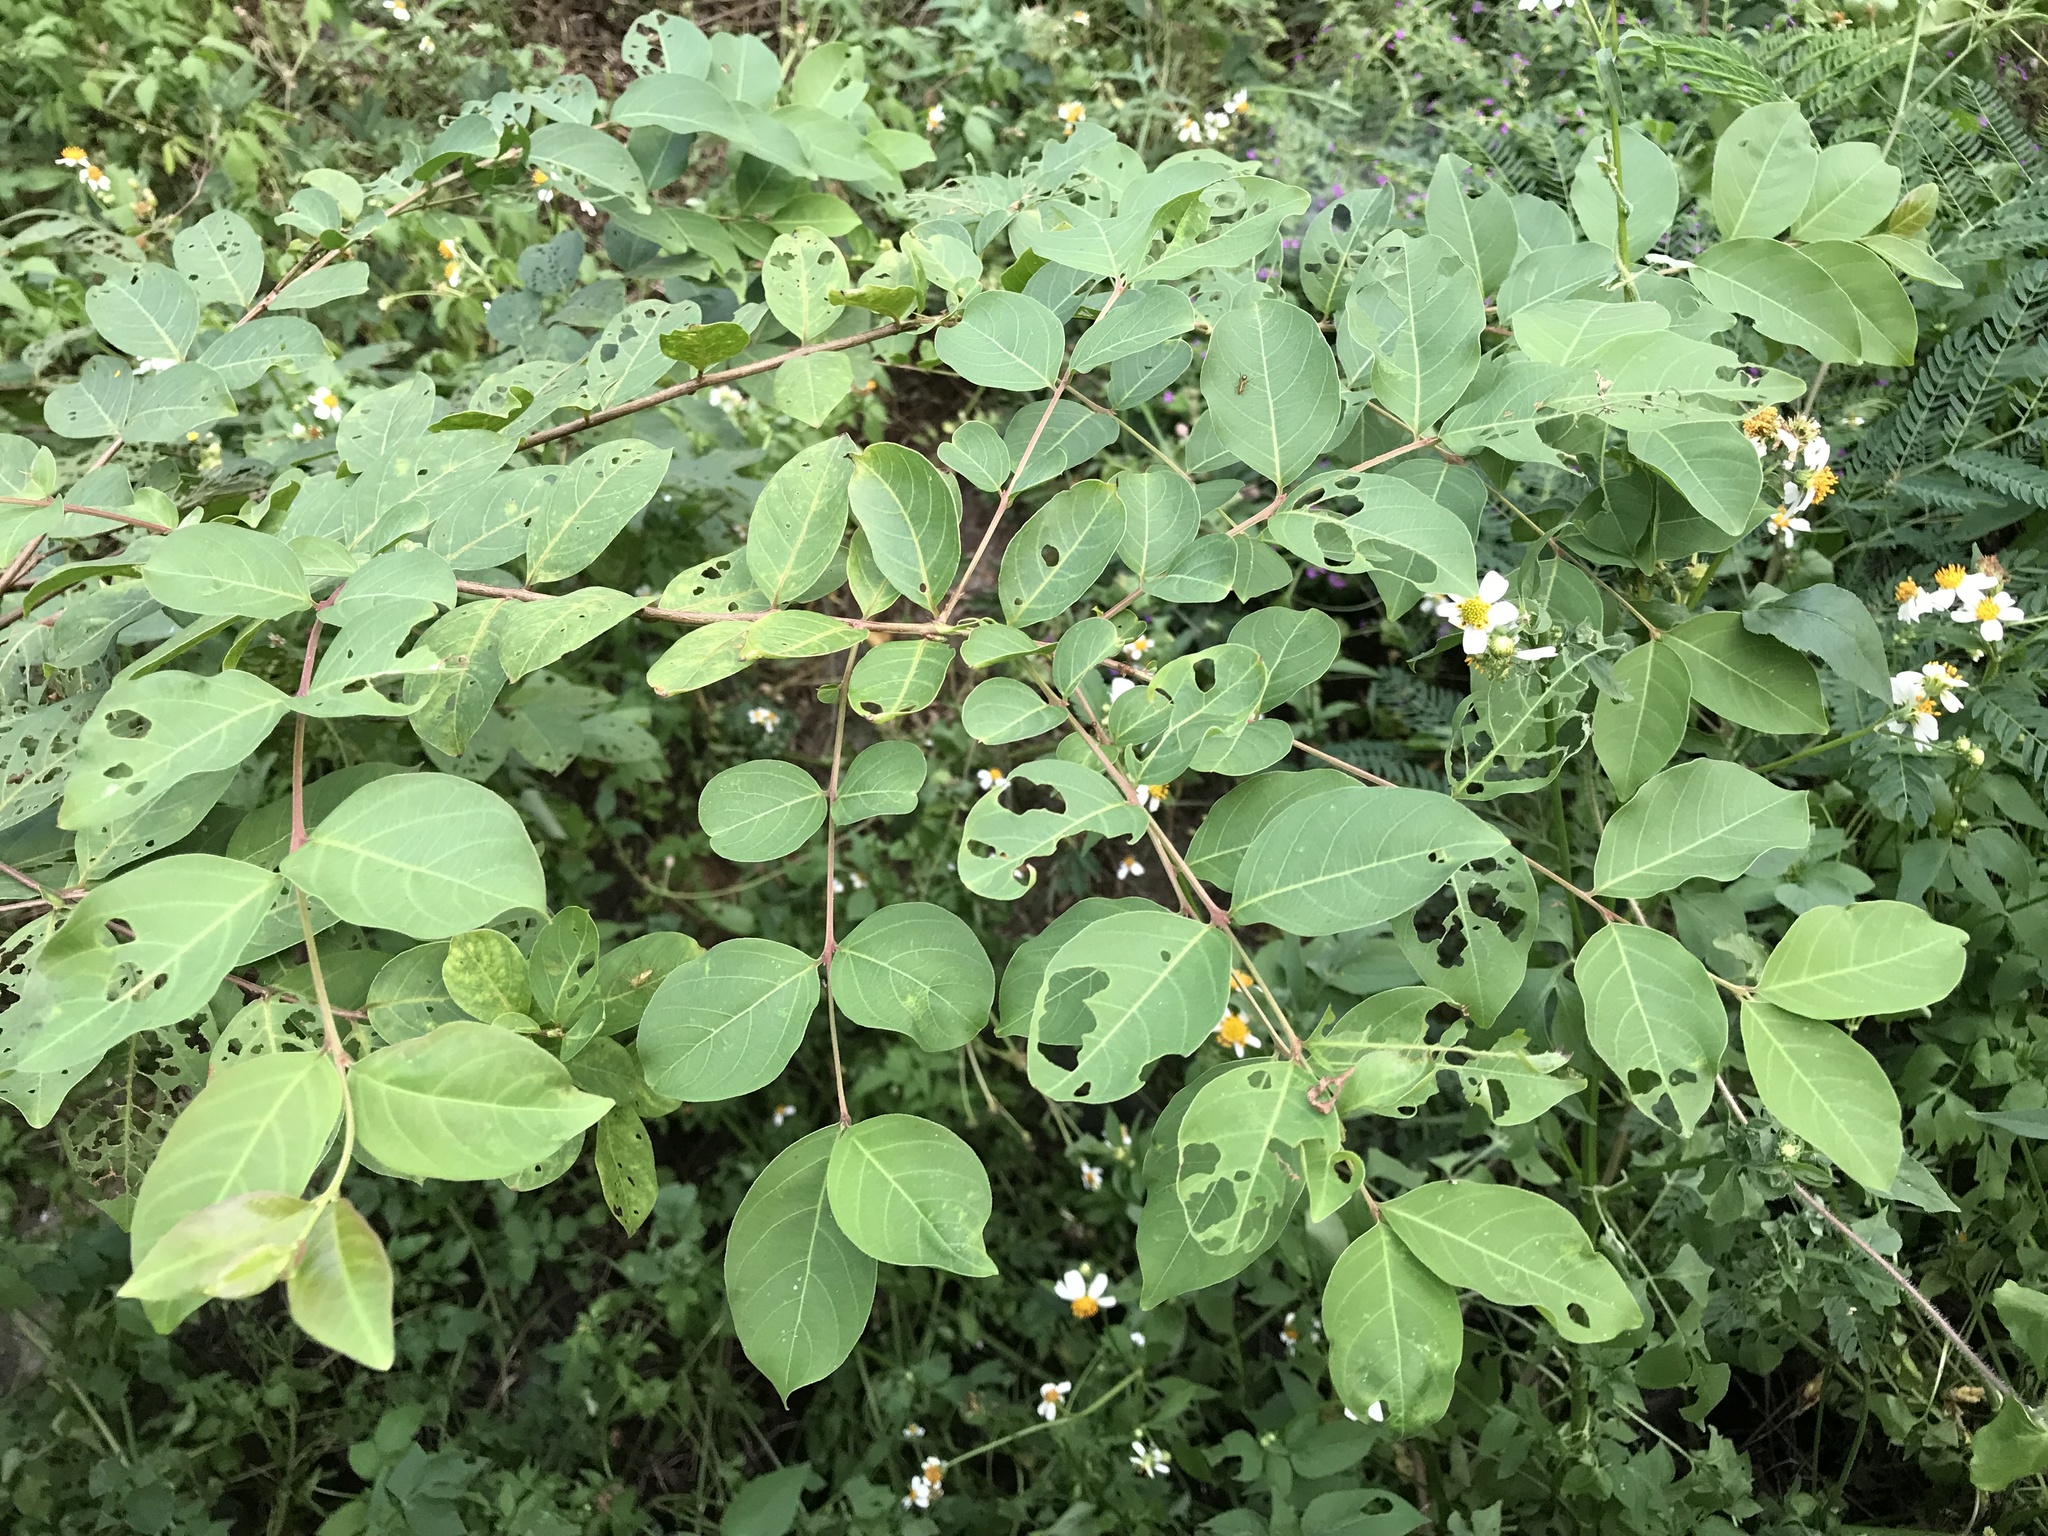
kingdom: Plantae
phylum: Tracheophyta
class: Magnoliopsida
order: Myrtales
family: Lythraceae
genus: Lagerstroemia
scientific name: Lagerstroemia subcostata
